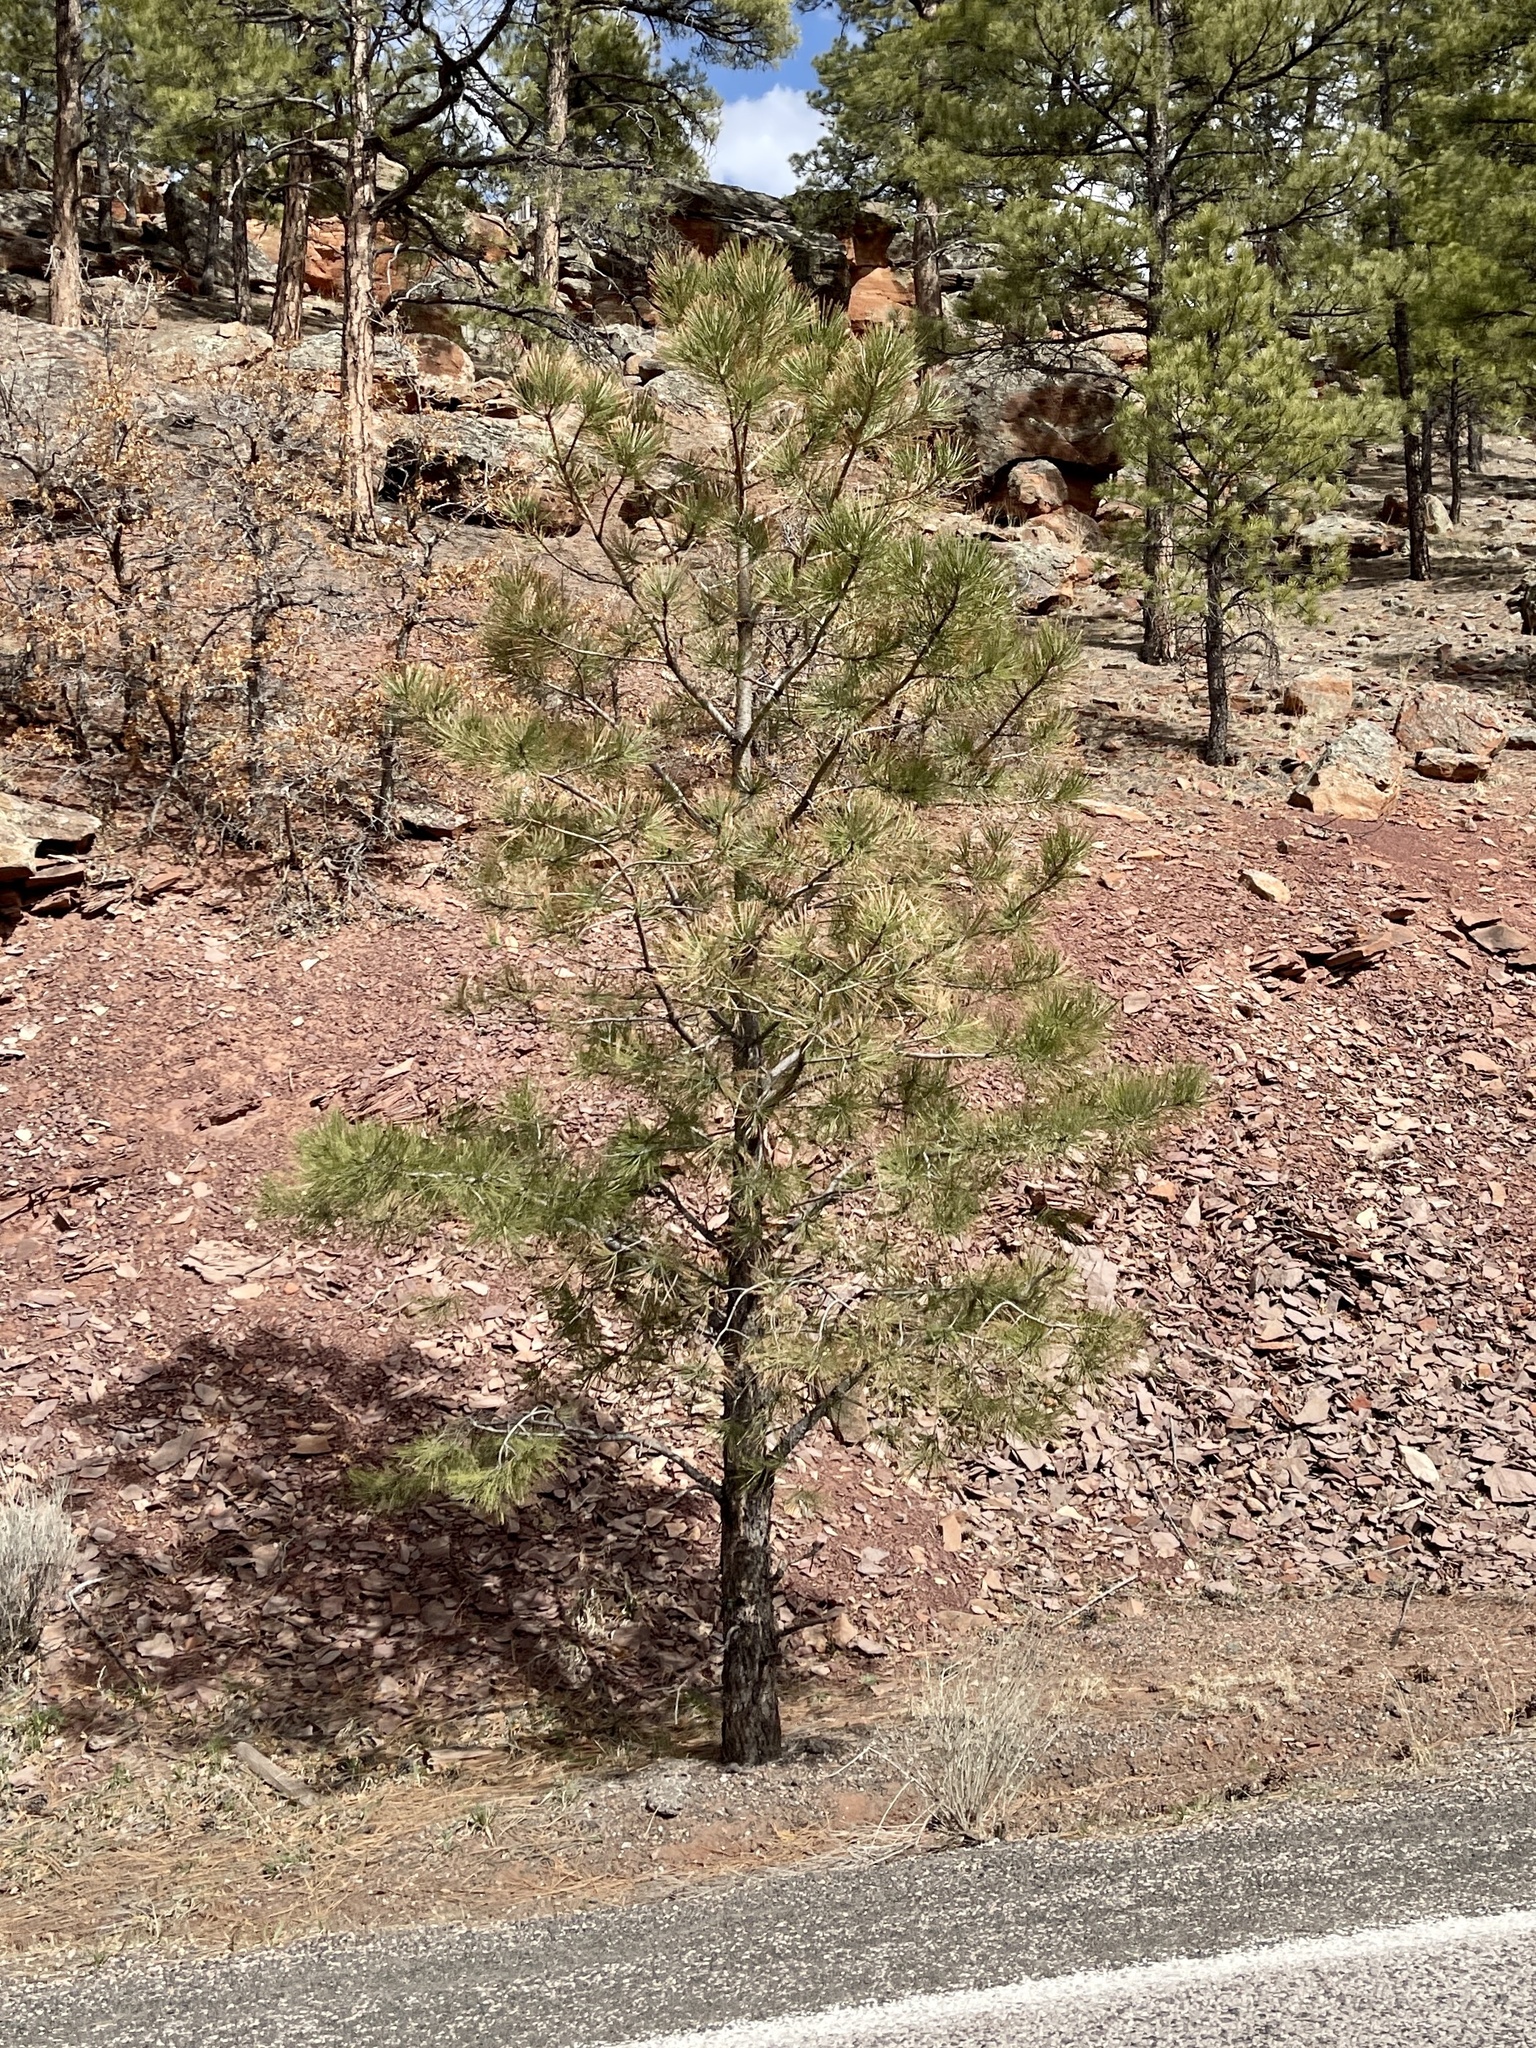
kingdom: Plantae
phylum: Tracheophyta
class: Pinopsida
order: Pinales
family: Pinaceae
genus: Pinus
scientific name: Pinus ponderosa
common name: Western yellow-pine
